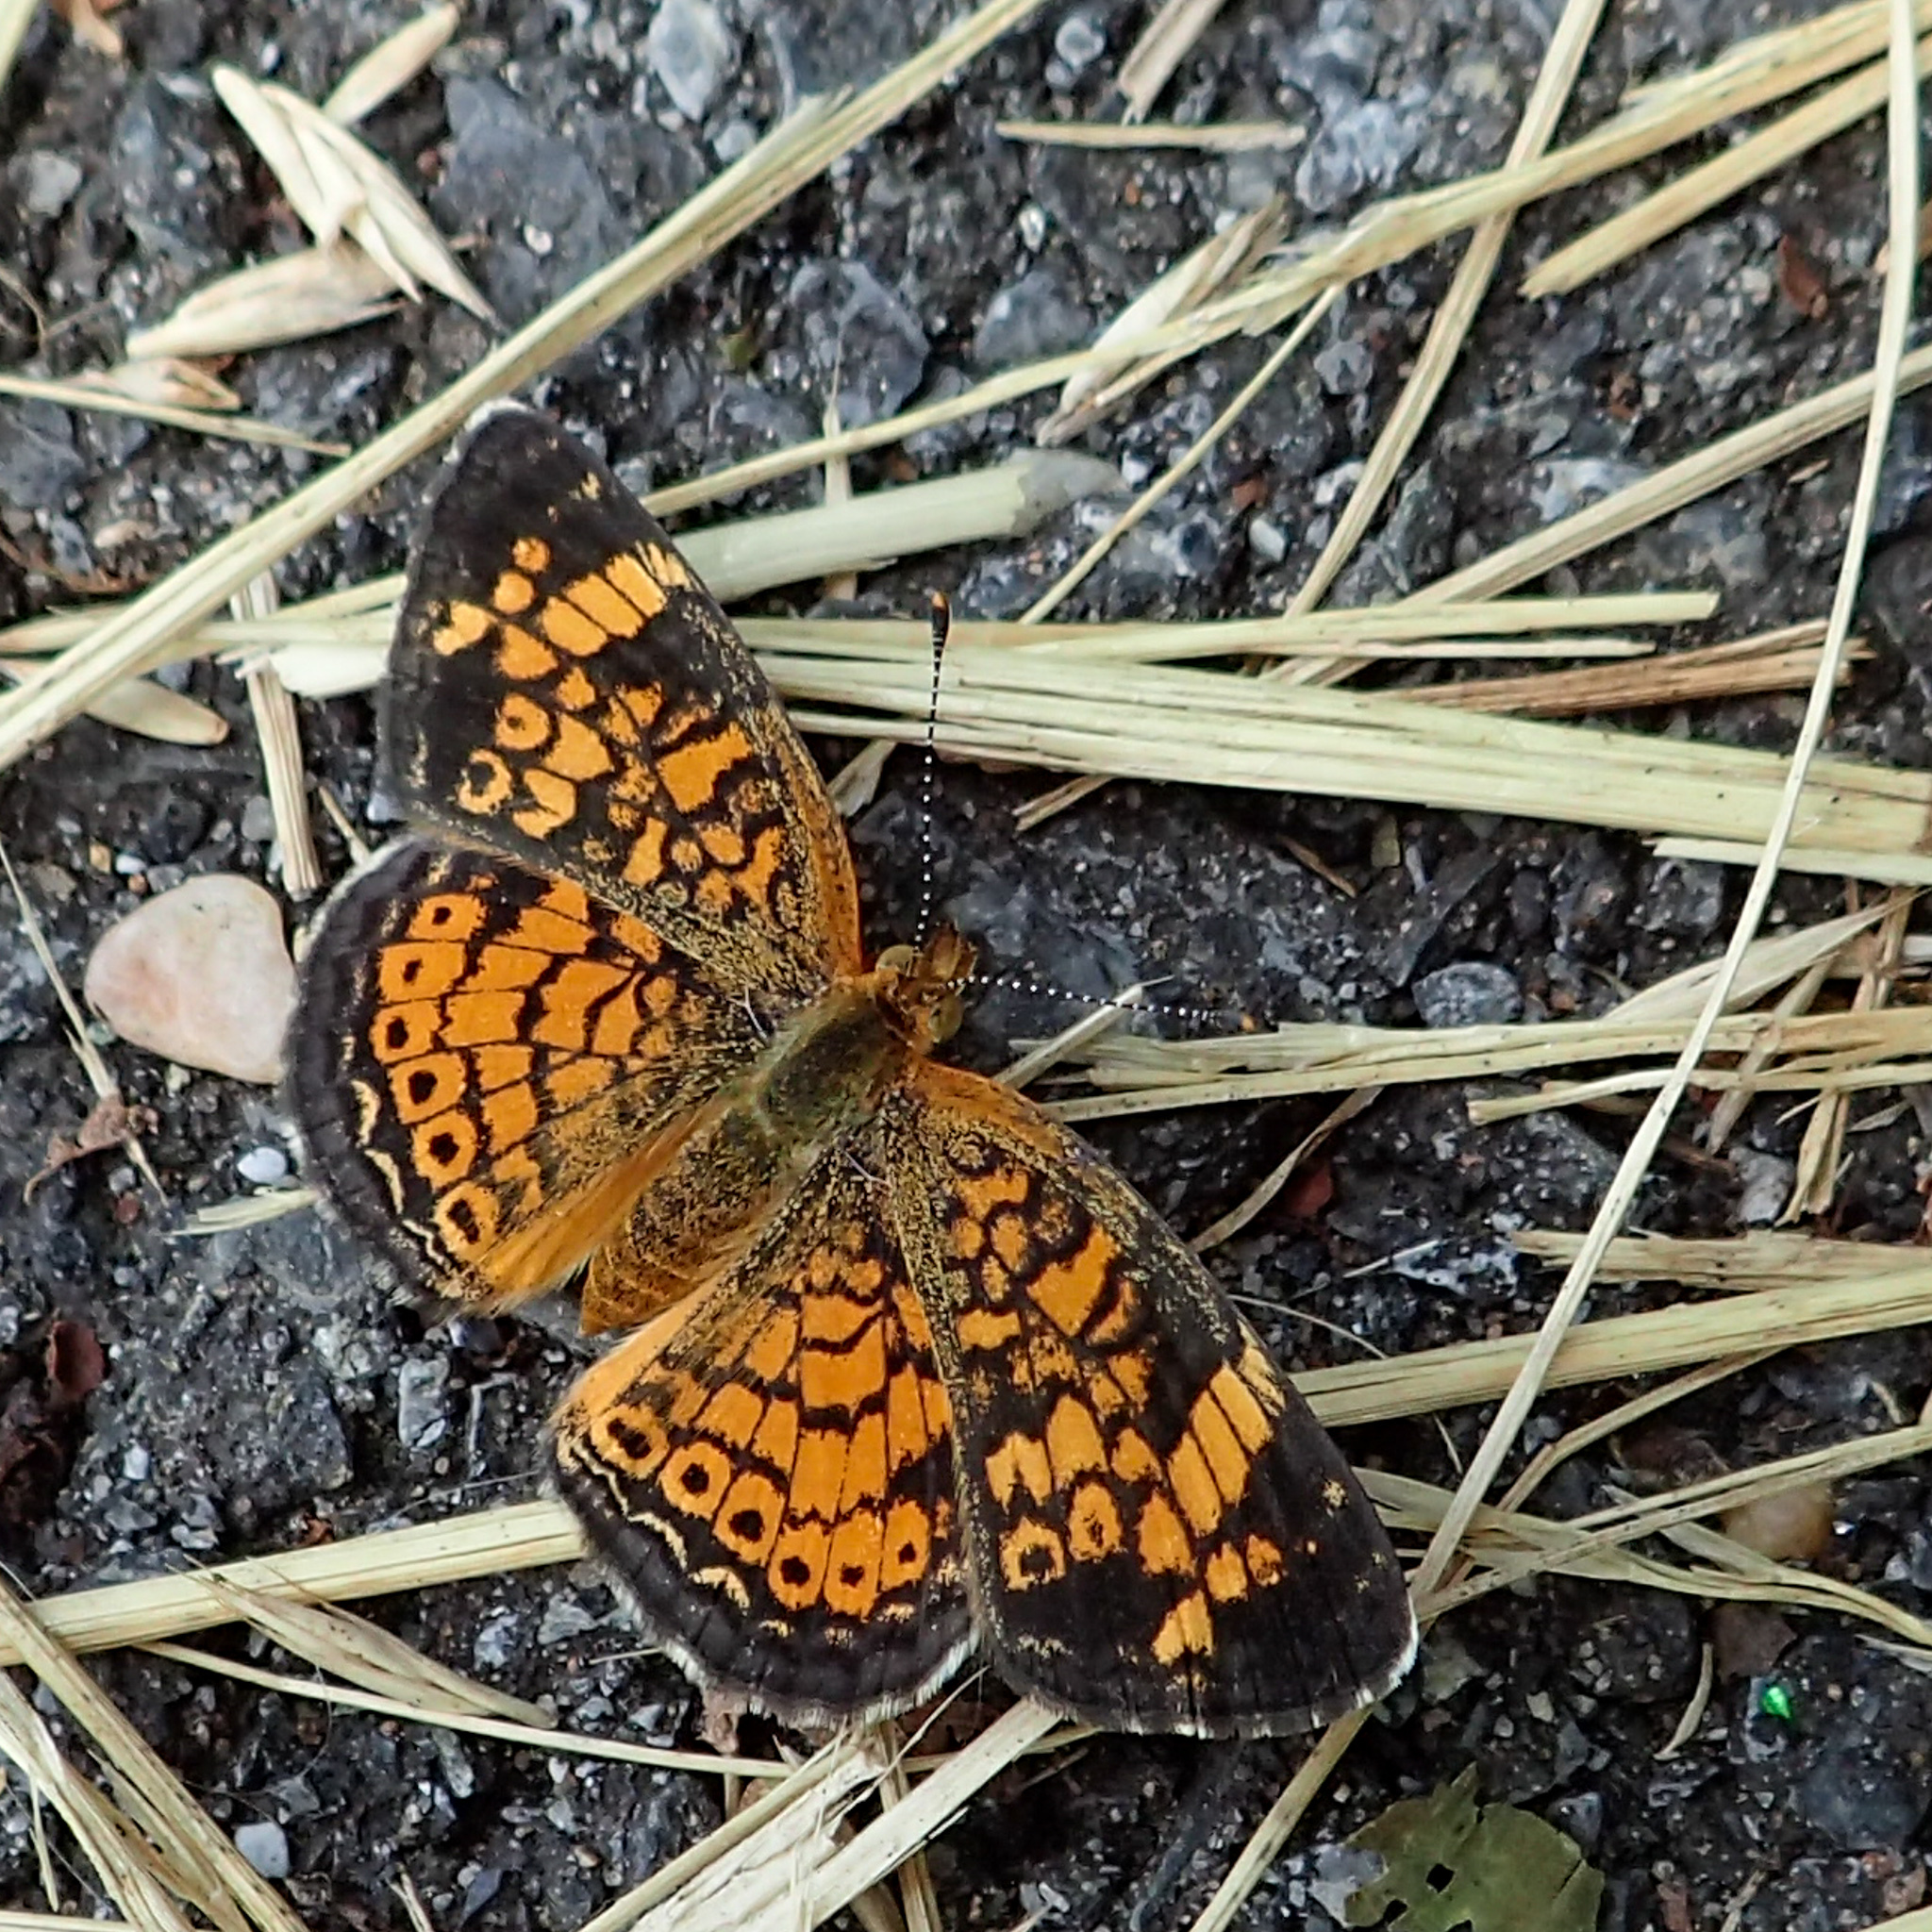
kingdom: Animalia
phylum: Arthropoda
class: Insecta
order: Lepidoptera
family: Nymphalidae
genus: Phyciodes
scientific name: Phyciodes tharos
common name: Pearl crescent
